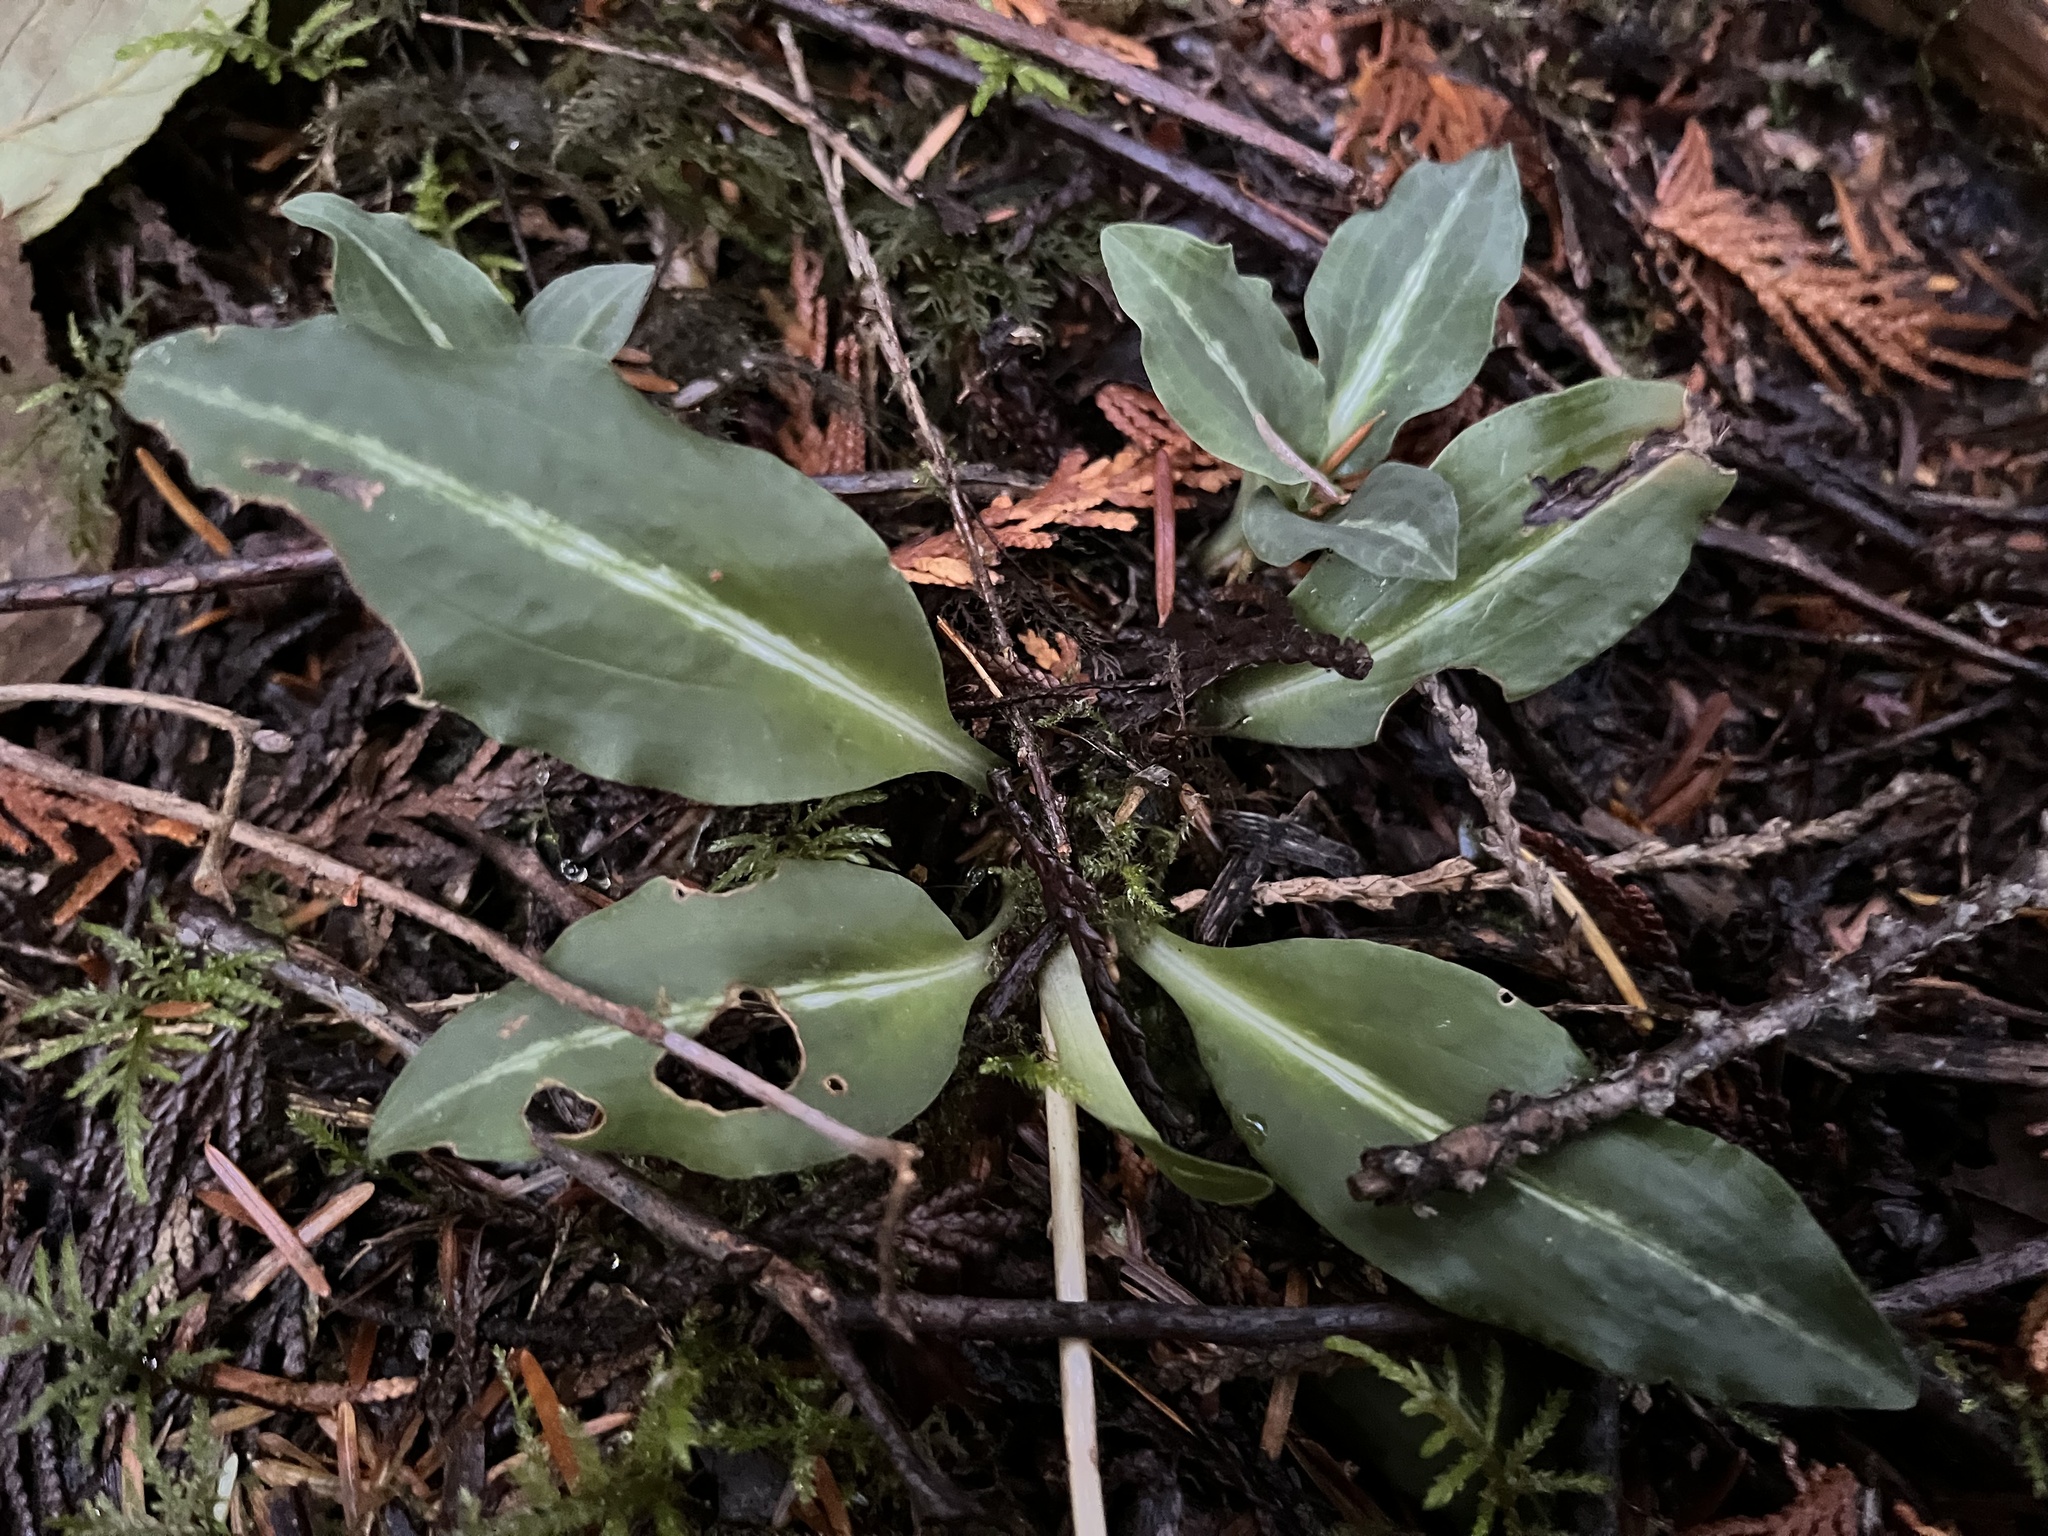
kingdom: Plantae
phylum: Tracheophyta
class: Liliopsida
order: Asparagales
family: Orchidaceae
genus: Goodyera
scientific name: Goodyera oblongifolia
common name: Giant rattlesnake-plantain
